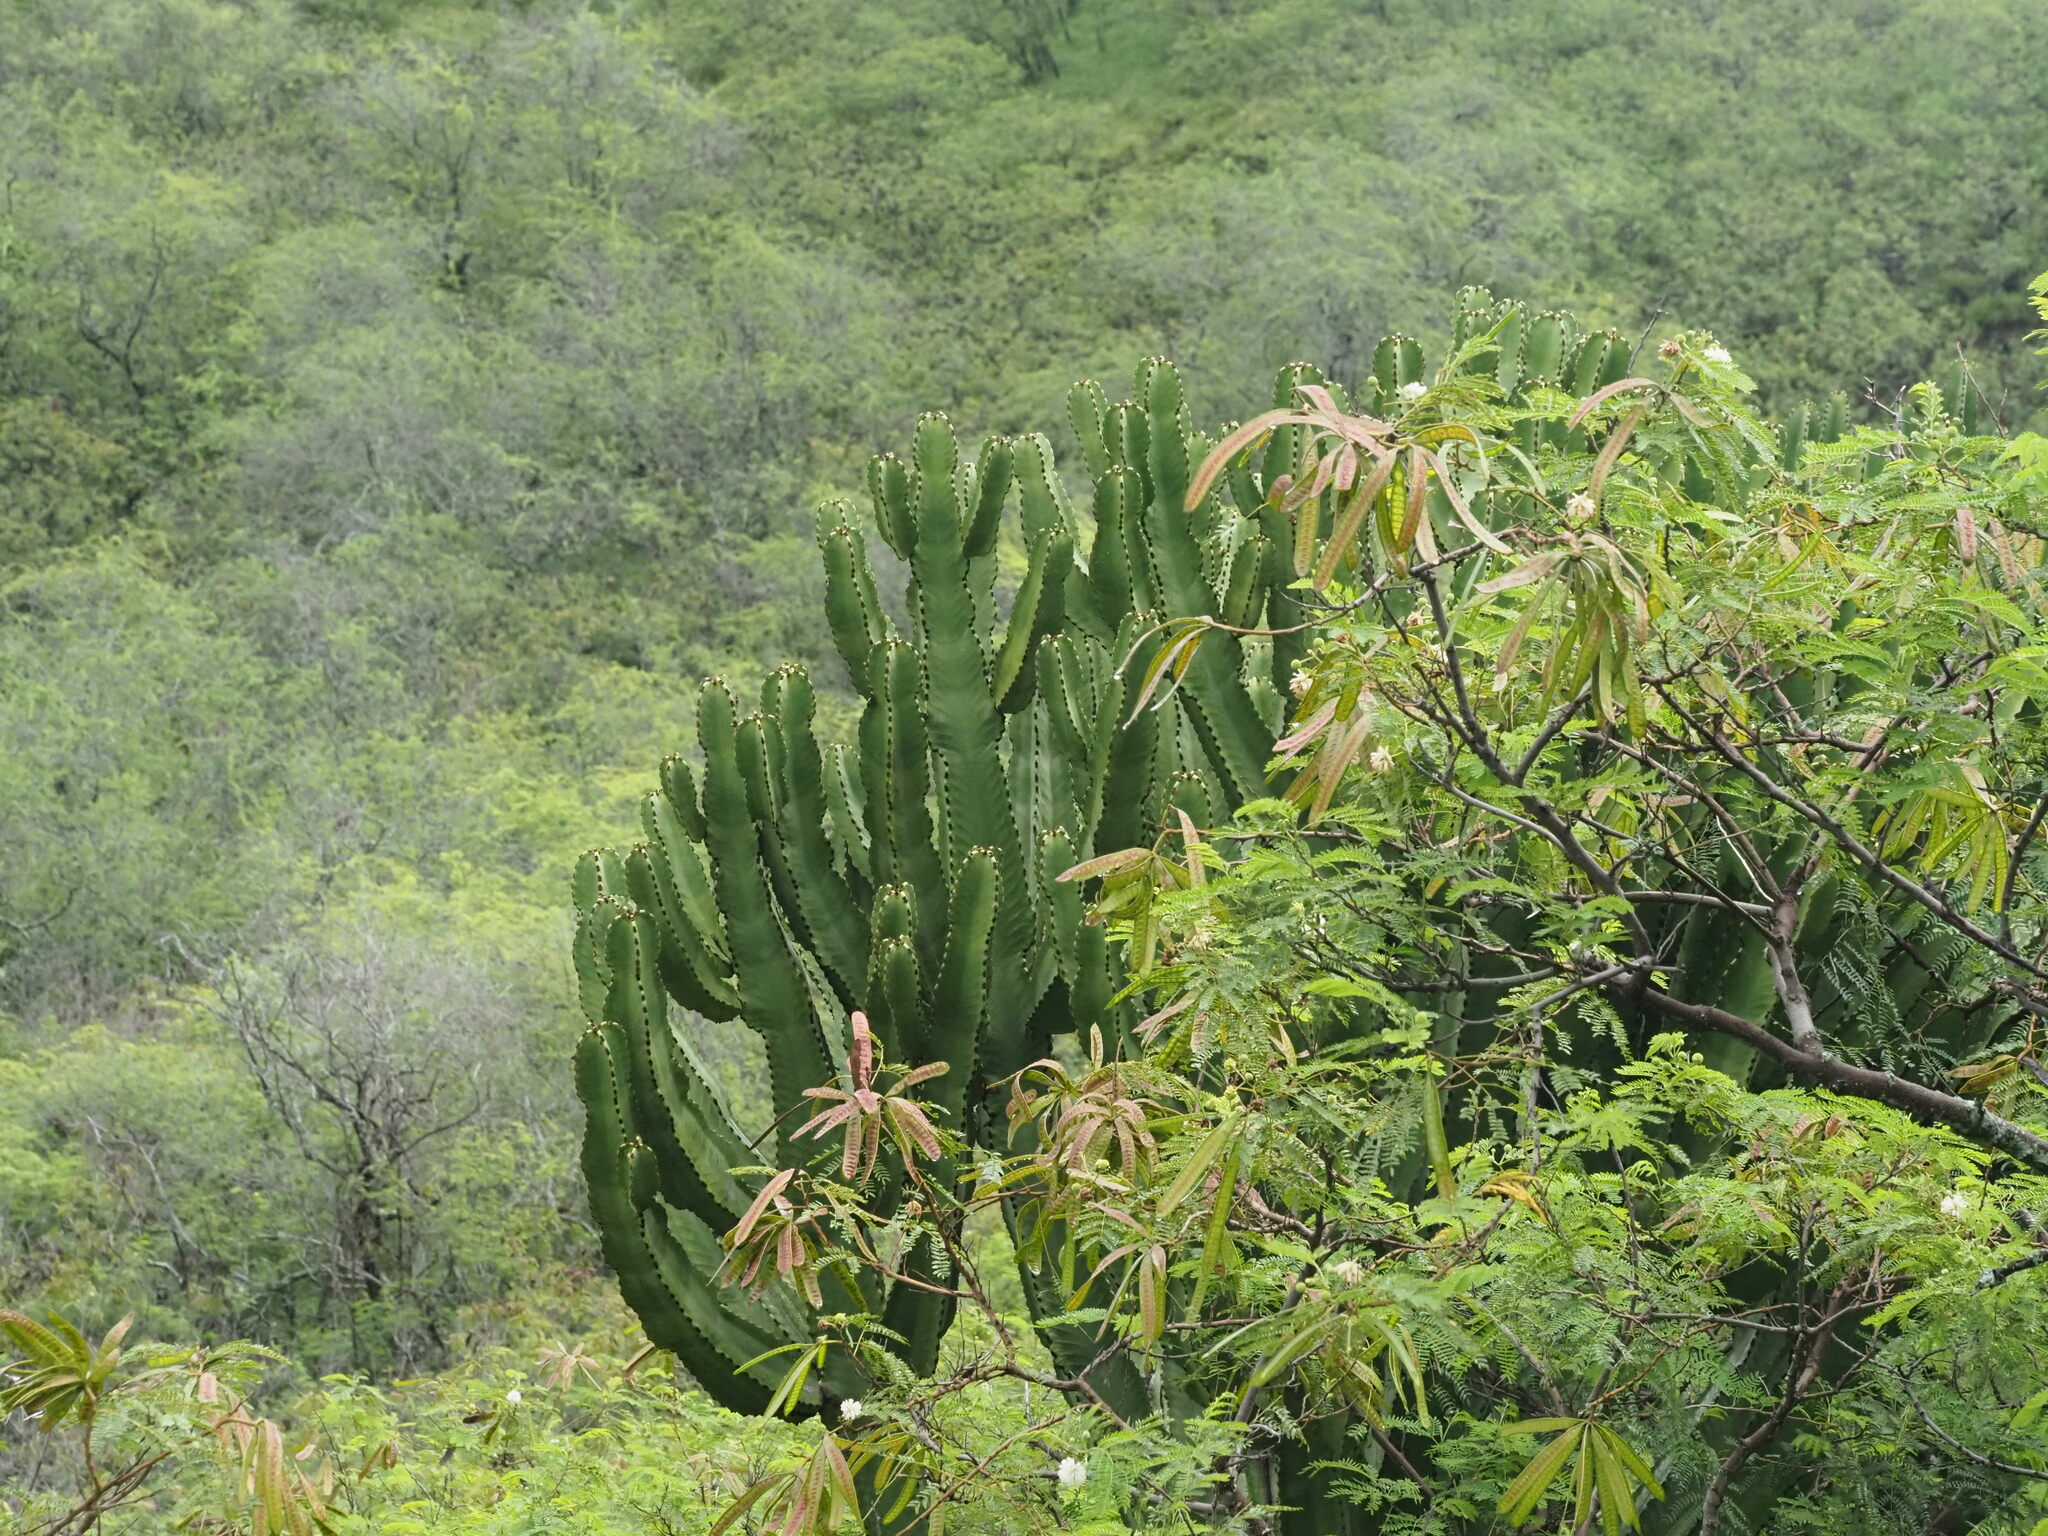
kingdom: Plantae
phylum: Tracheophyta
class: Magnoliopsida
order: Malpighiales
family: Euphorbiaceae
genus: Euphorbia
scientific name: Euphorbia ingens
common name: Cactus spurge
